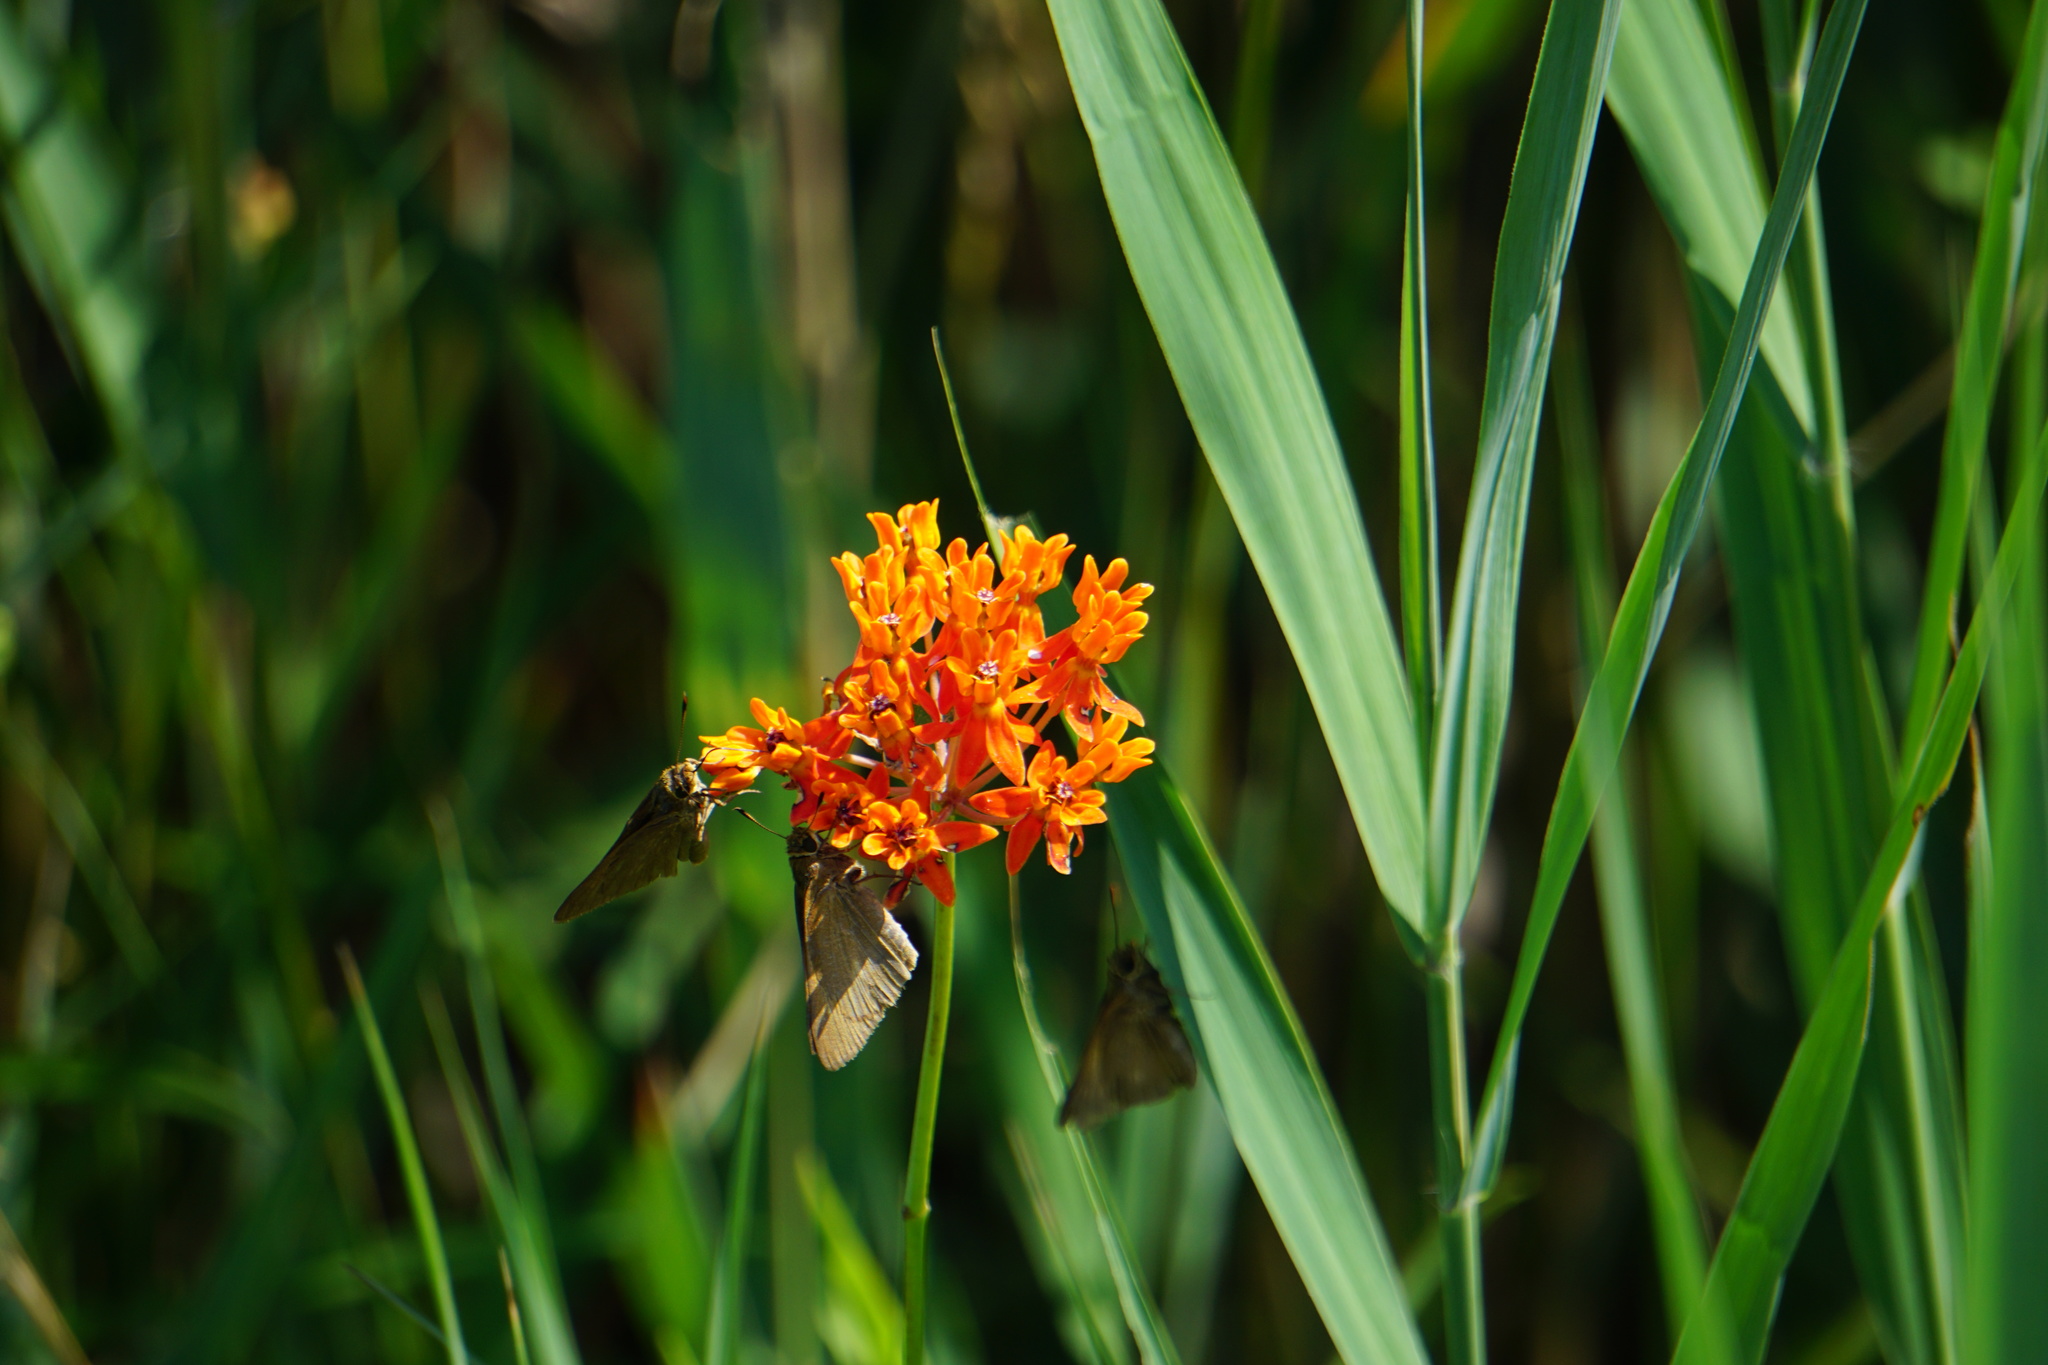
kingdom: Plantae
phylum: Tracheophyta
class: Magnoliopsida
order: Gentianales
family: Apocynaceae
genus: Asclepias
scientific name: Asclepias lanceolata
